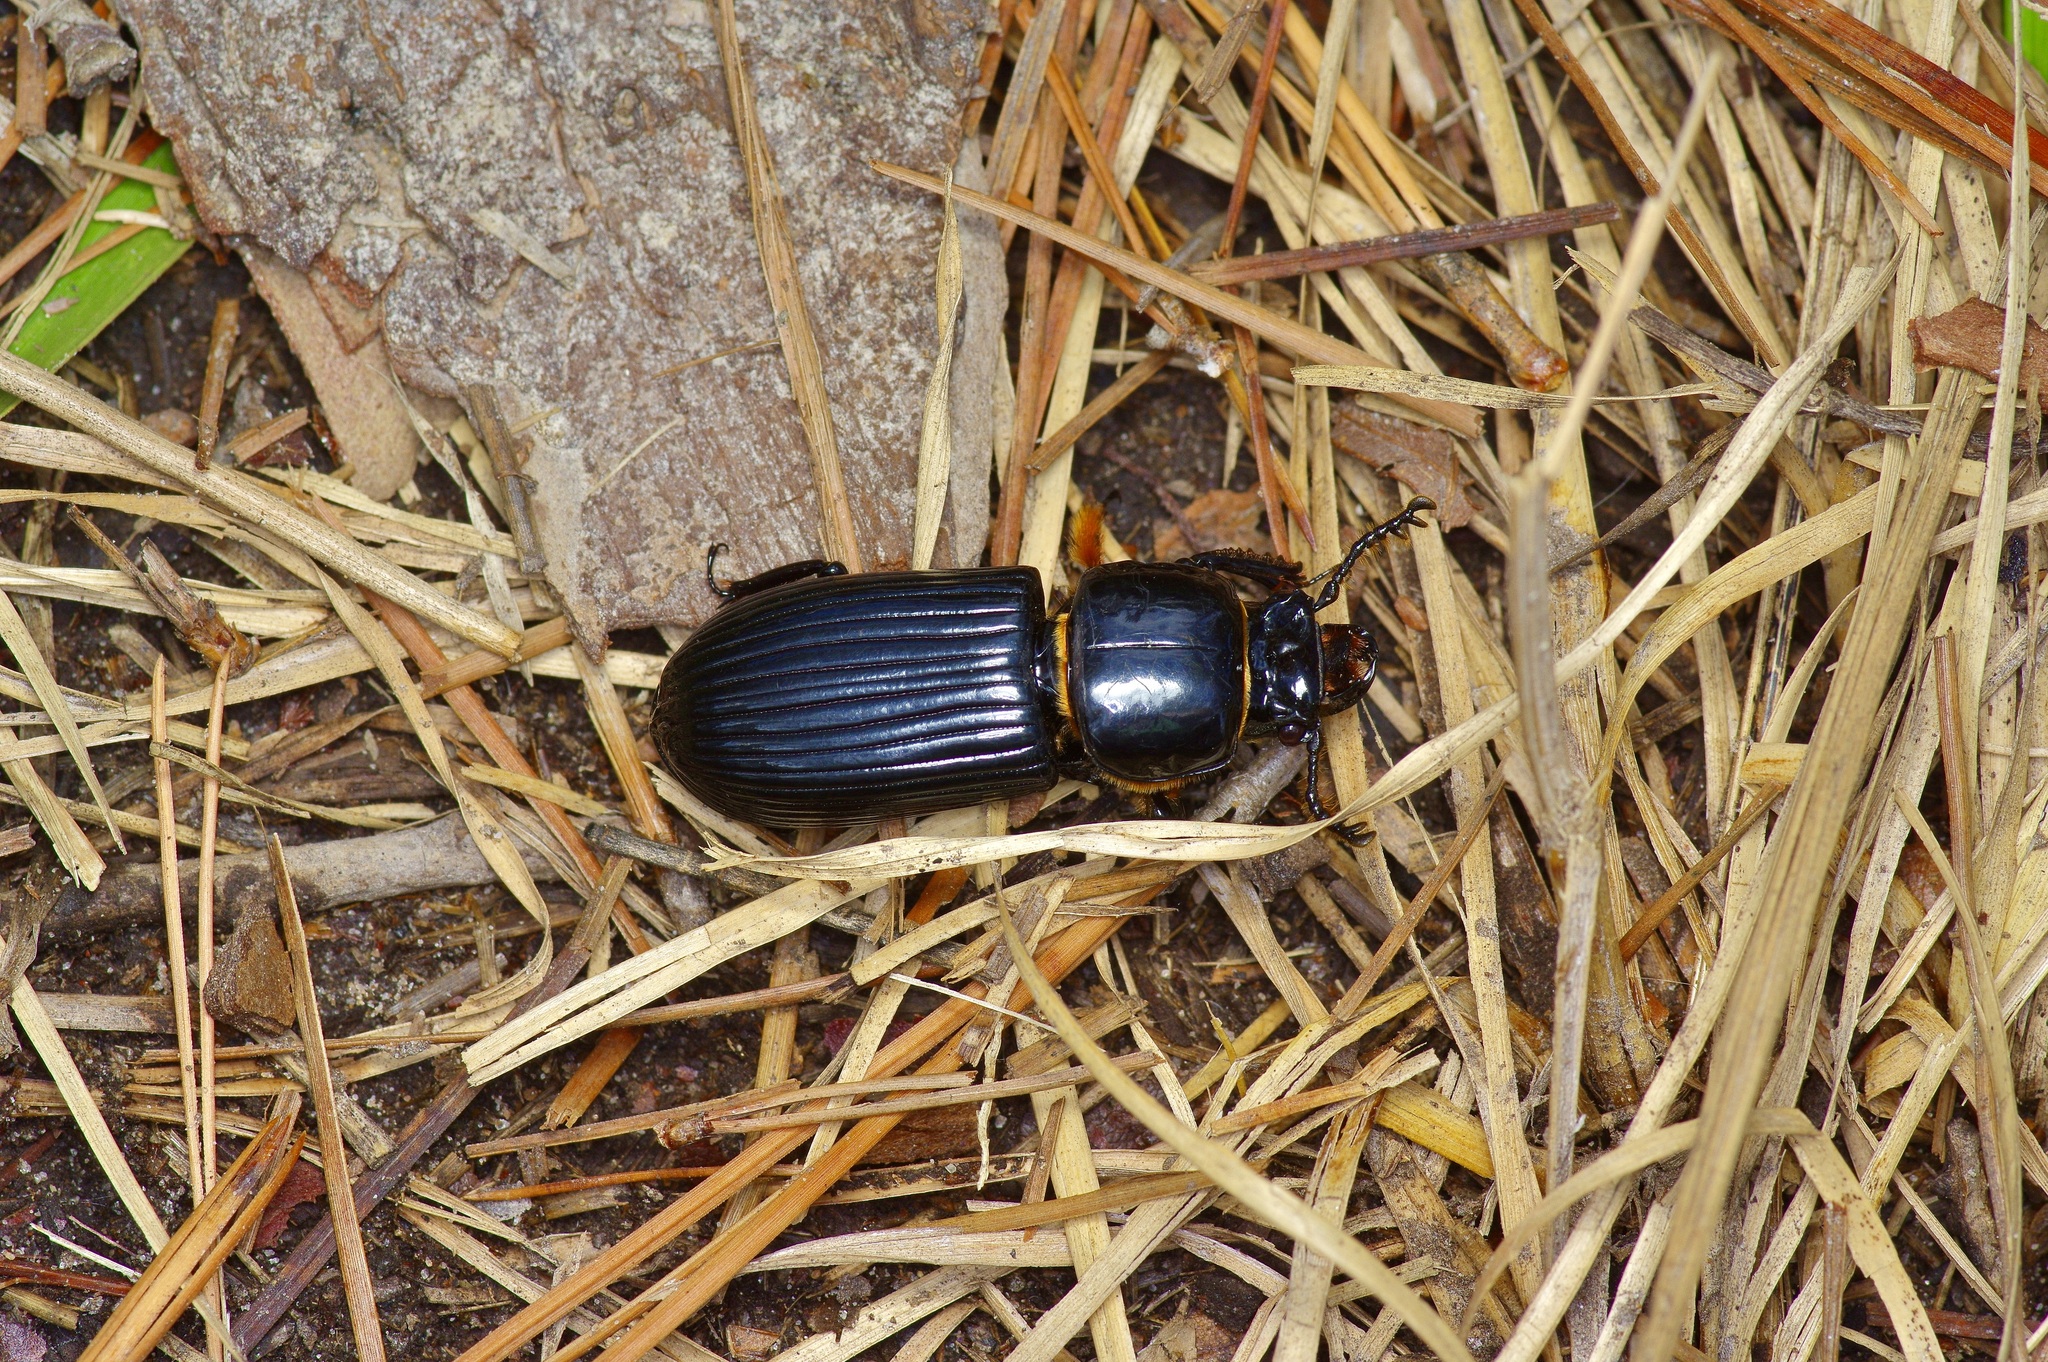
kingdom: Animalia
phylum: Arthropoda
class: Insecta
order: Coleoptera
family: Passalidae
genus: Odontotaenius
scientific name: Odontotaenius disjunctus
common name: Patent leather beetle
